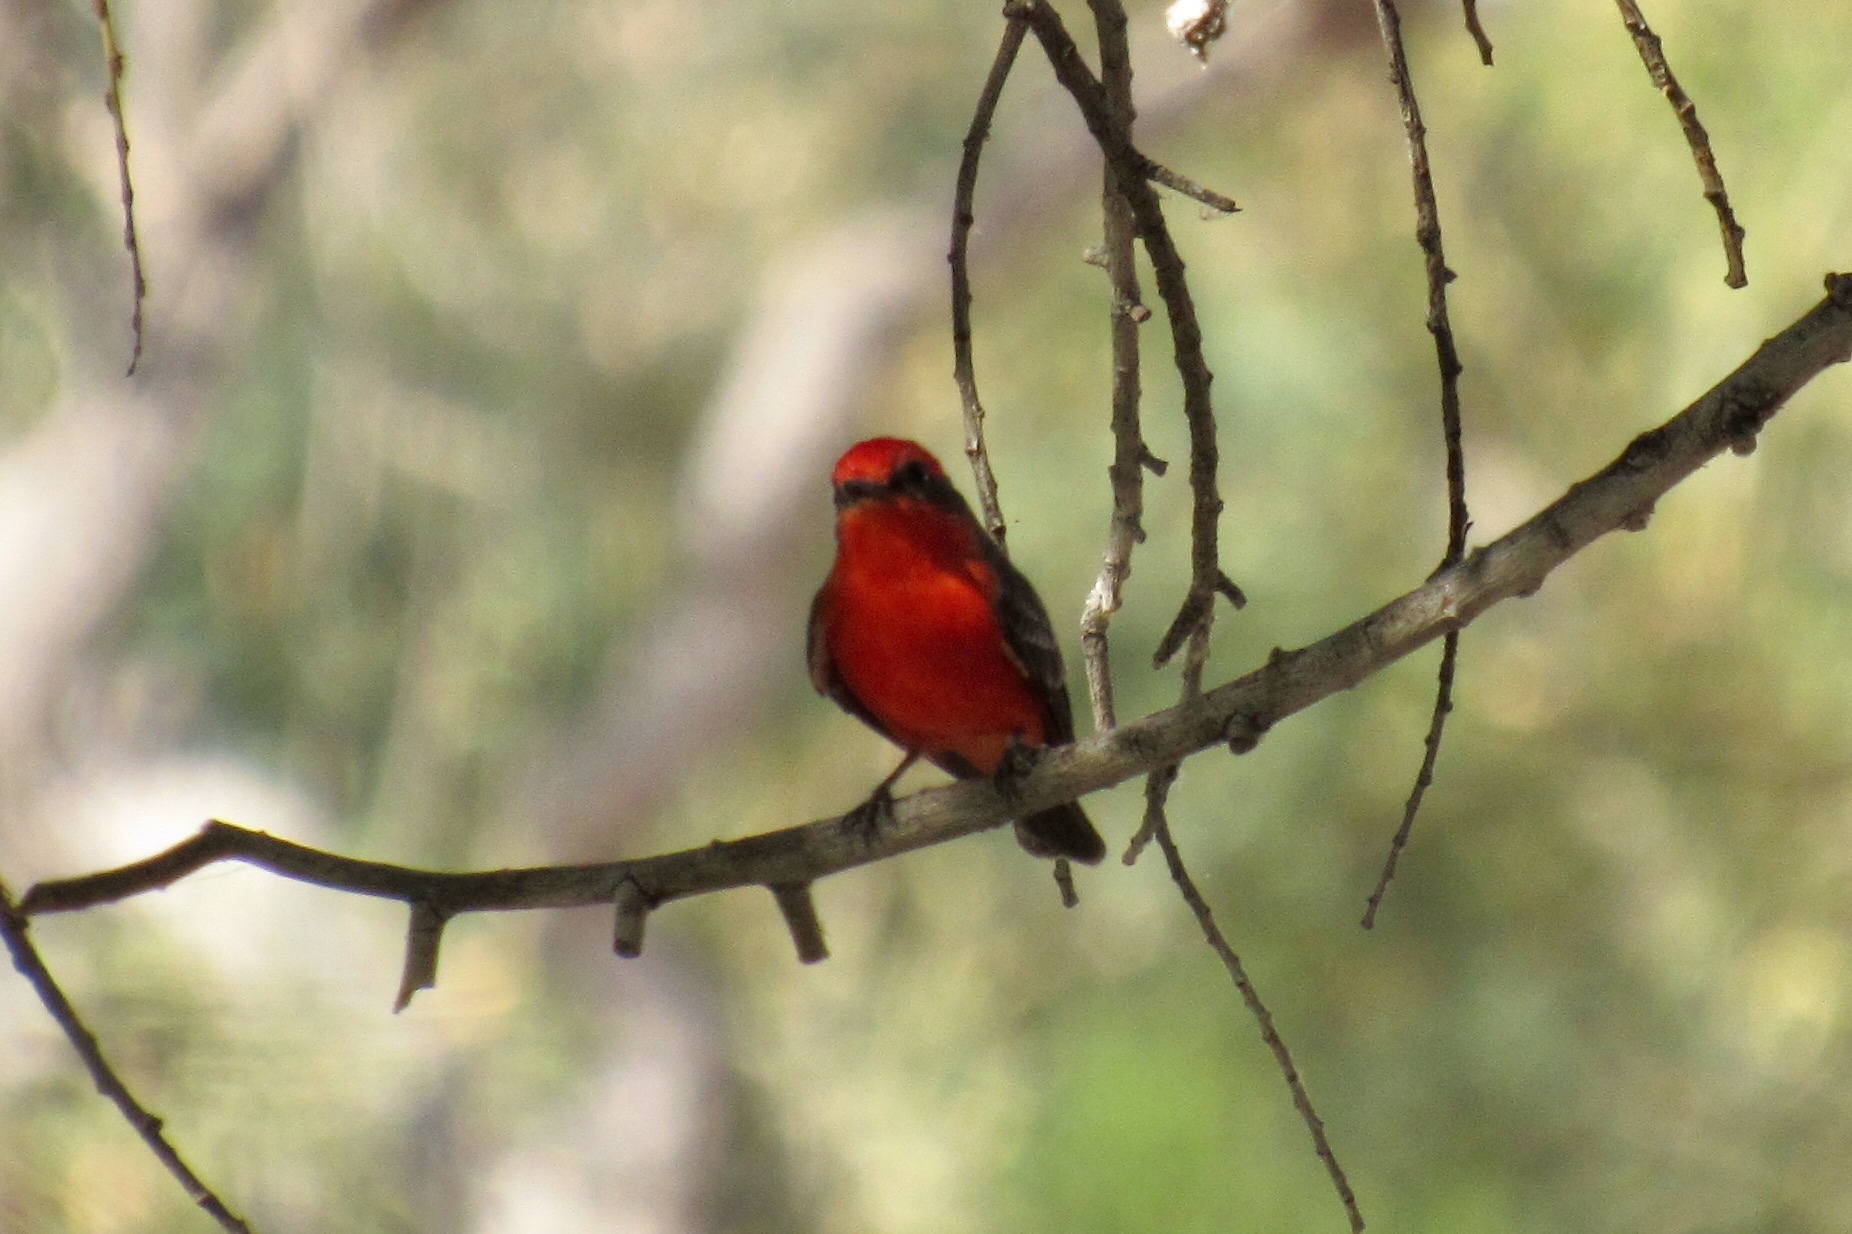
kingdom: Animalia
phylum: Chordata
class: Aves
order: Passeriformes
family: Tyrannidae
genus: Pyrocephalus
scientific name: Pyrocephalus rubinus
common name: Vermilion flycatcher
